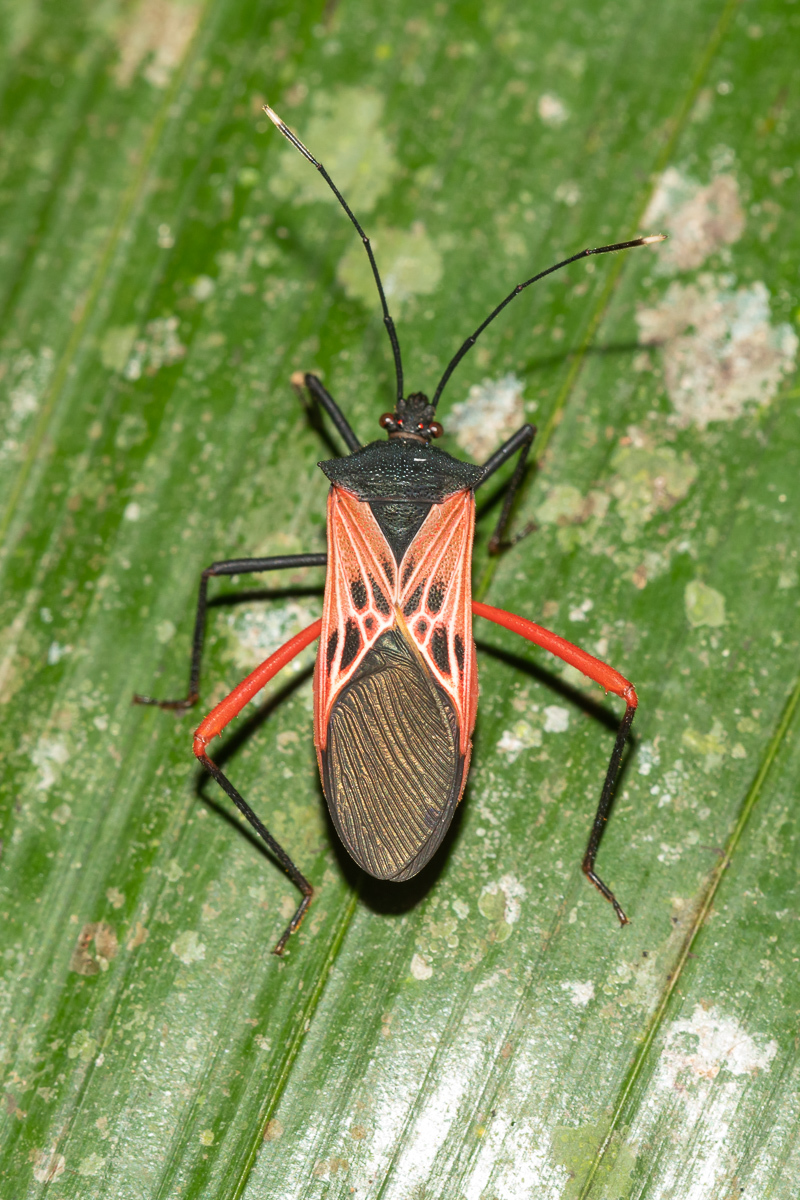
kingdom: Animalia
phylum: Arthropoda
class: Insecta
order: Hemiptera
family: Coreidae
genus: Leptoscelis
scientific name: Leptoscelis excellens
